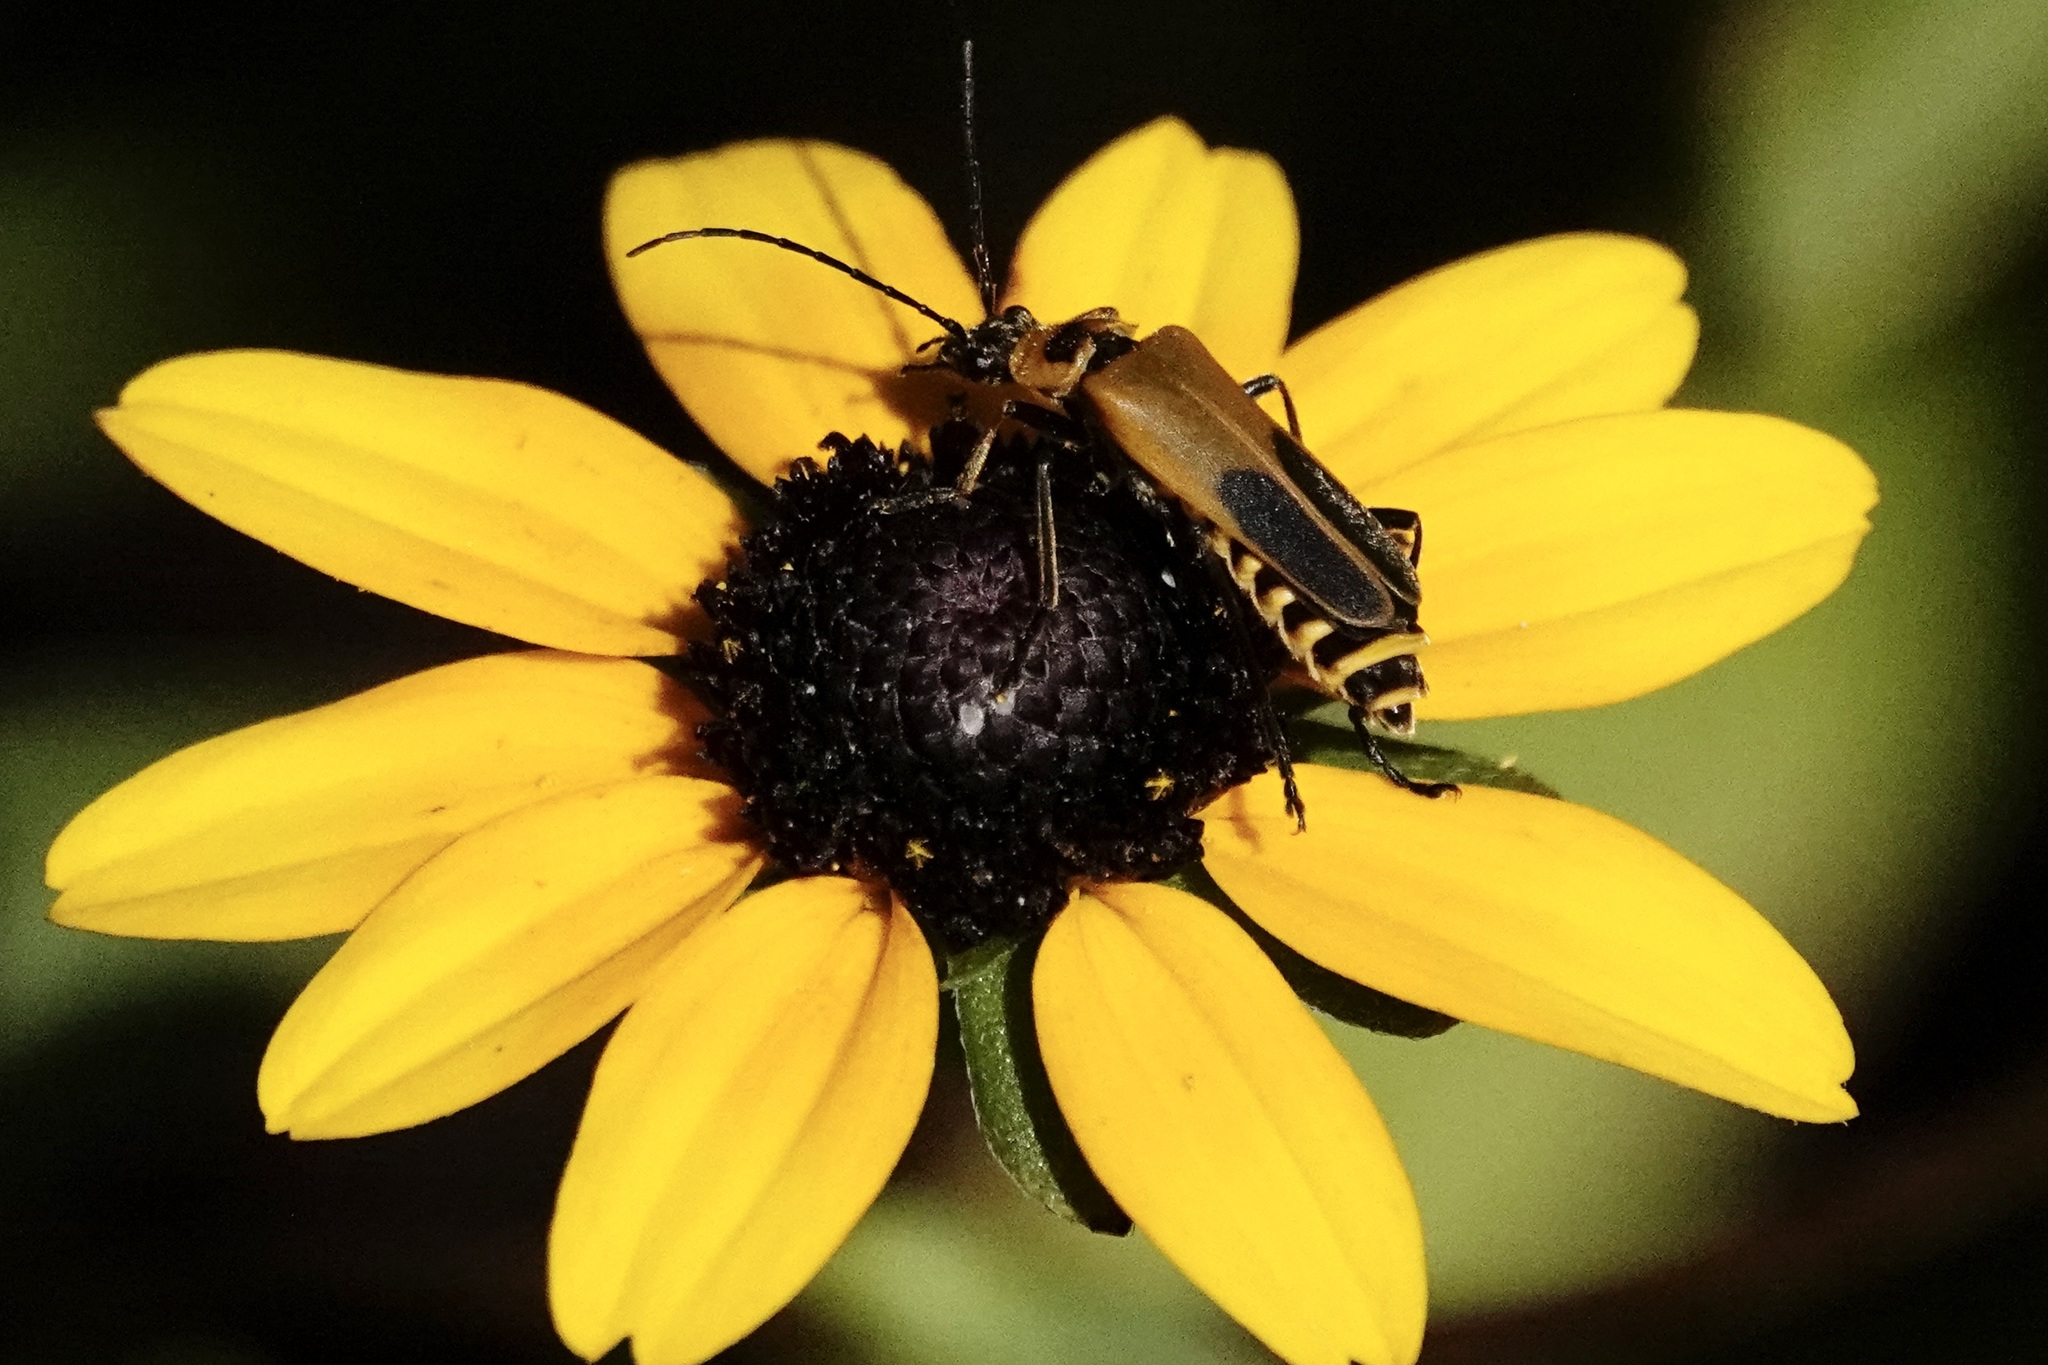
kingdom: Animalia
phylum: Arthropoda
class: Insecta
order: Coleoptera
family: Cantharidae
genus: Chauliognathus
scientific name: Chauliognathus pensylvanicus
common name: Goldenrod soldier beetle
